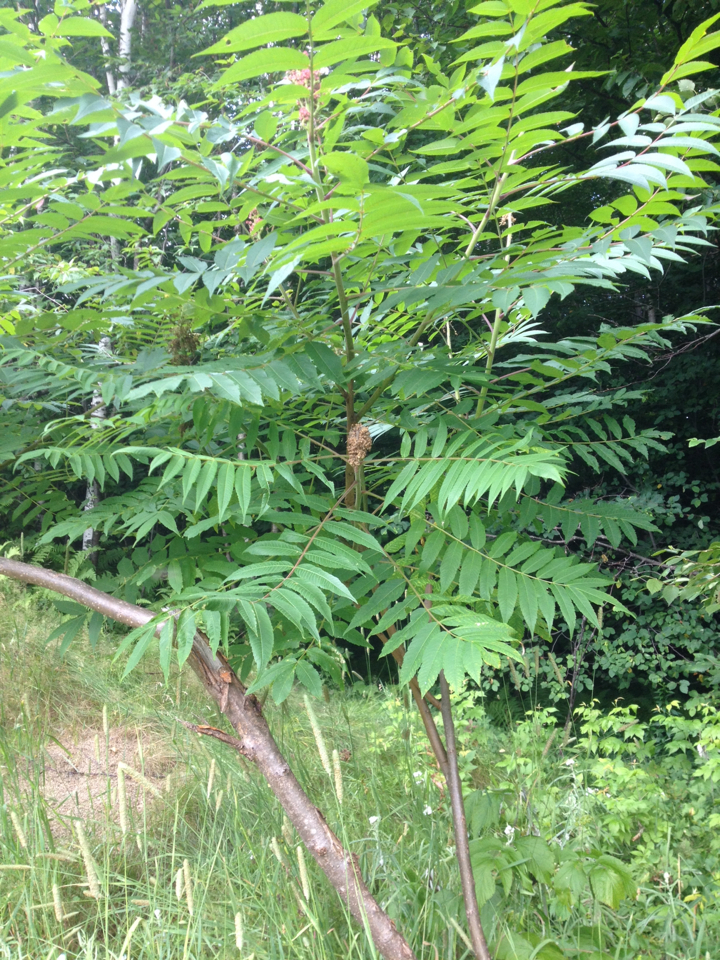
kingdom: Plantae
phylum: Tracheophyta
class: Magnoliopsida
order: Sapindales
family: Anacardiaceae
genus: Rhus
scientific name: Rhus typhina
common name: Staghorn sumac
